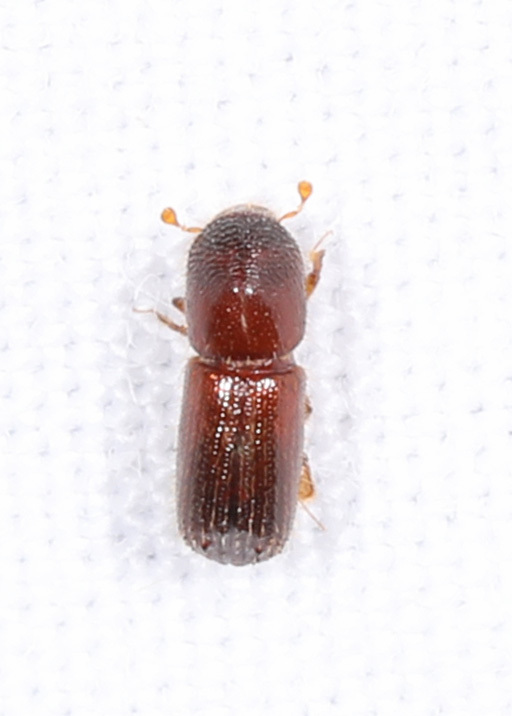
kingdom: Animalia
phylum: Arthropoda
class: Insecta
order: Coleoptera
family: Curculionidae
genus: Xyleborus
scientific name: Xyleborus bispinatus
